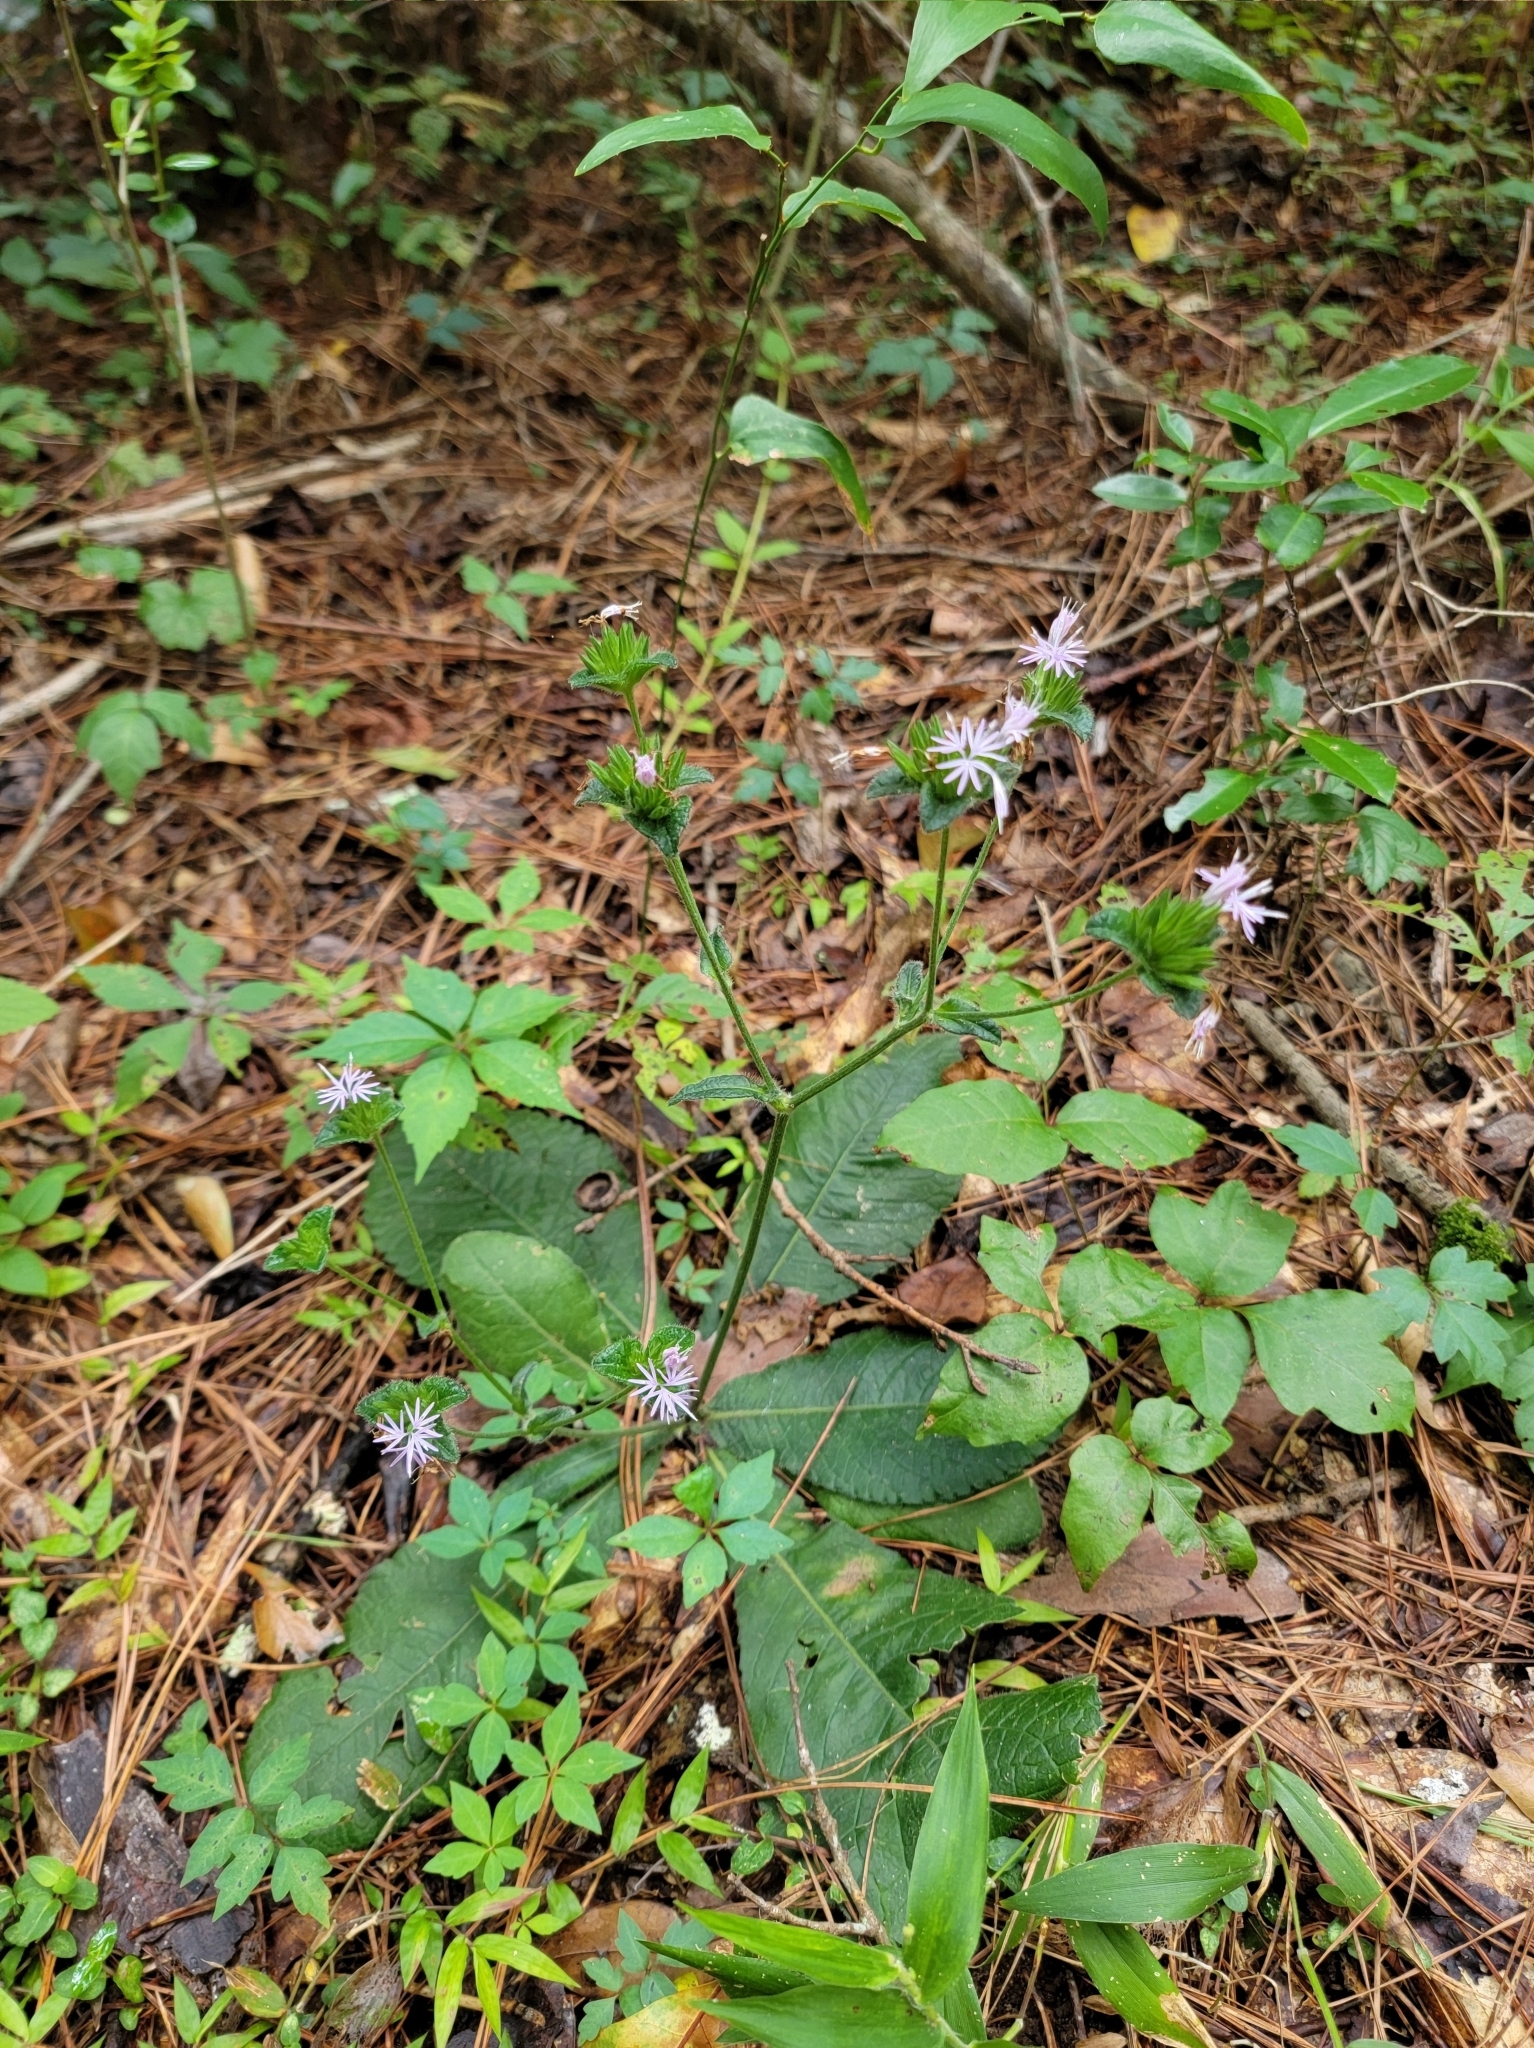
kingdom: Plantae
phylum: Tracheophyta
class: Magnoliopsida
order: Asterales
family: Asteraceae
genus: Elephantopus
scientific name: Elephantopus carolinianus
